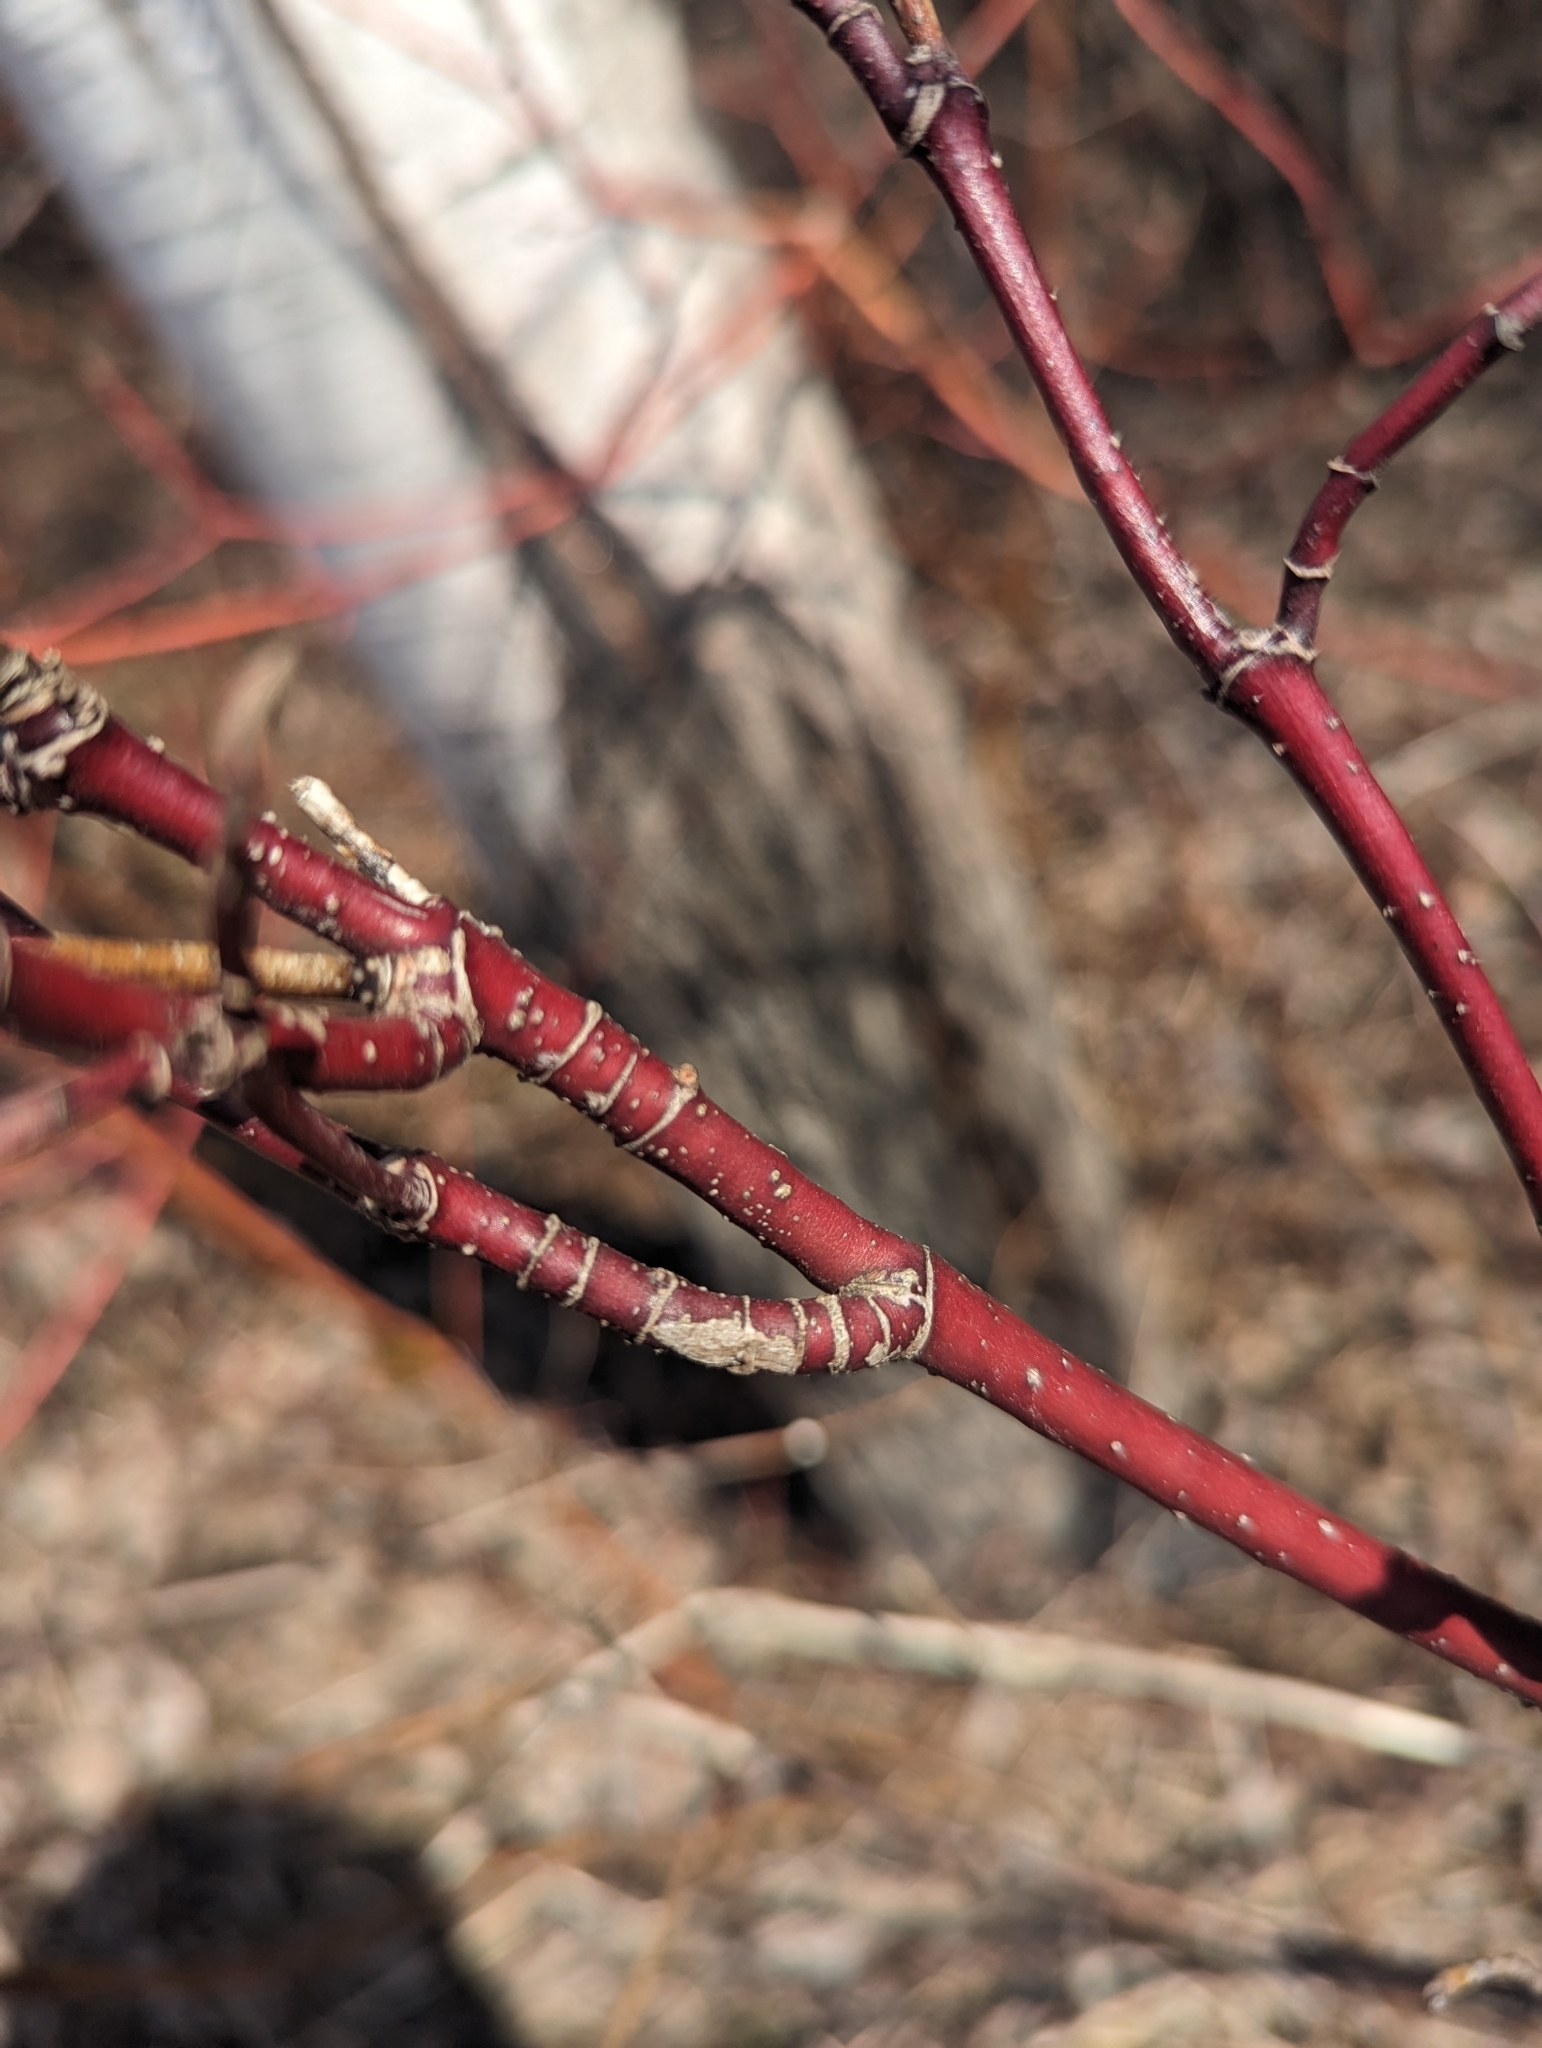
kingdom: Plantae
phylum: Tracheophyta
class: Magnoliopsida
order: Cornales
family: Cornaceae
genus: Cornus
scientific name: Cornus sericea
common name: Red-osier dogwood
